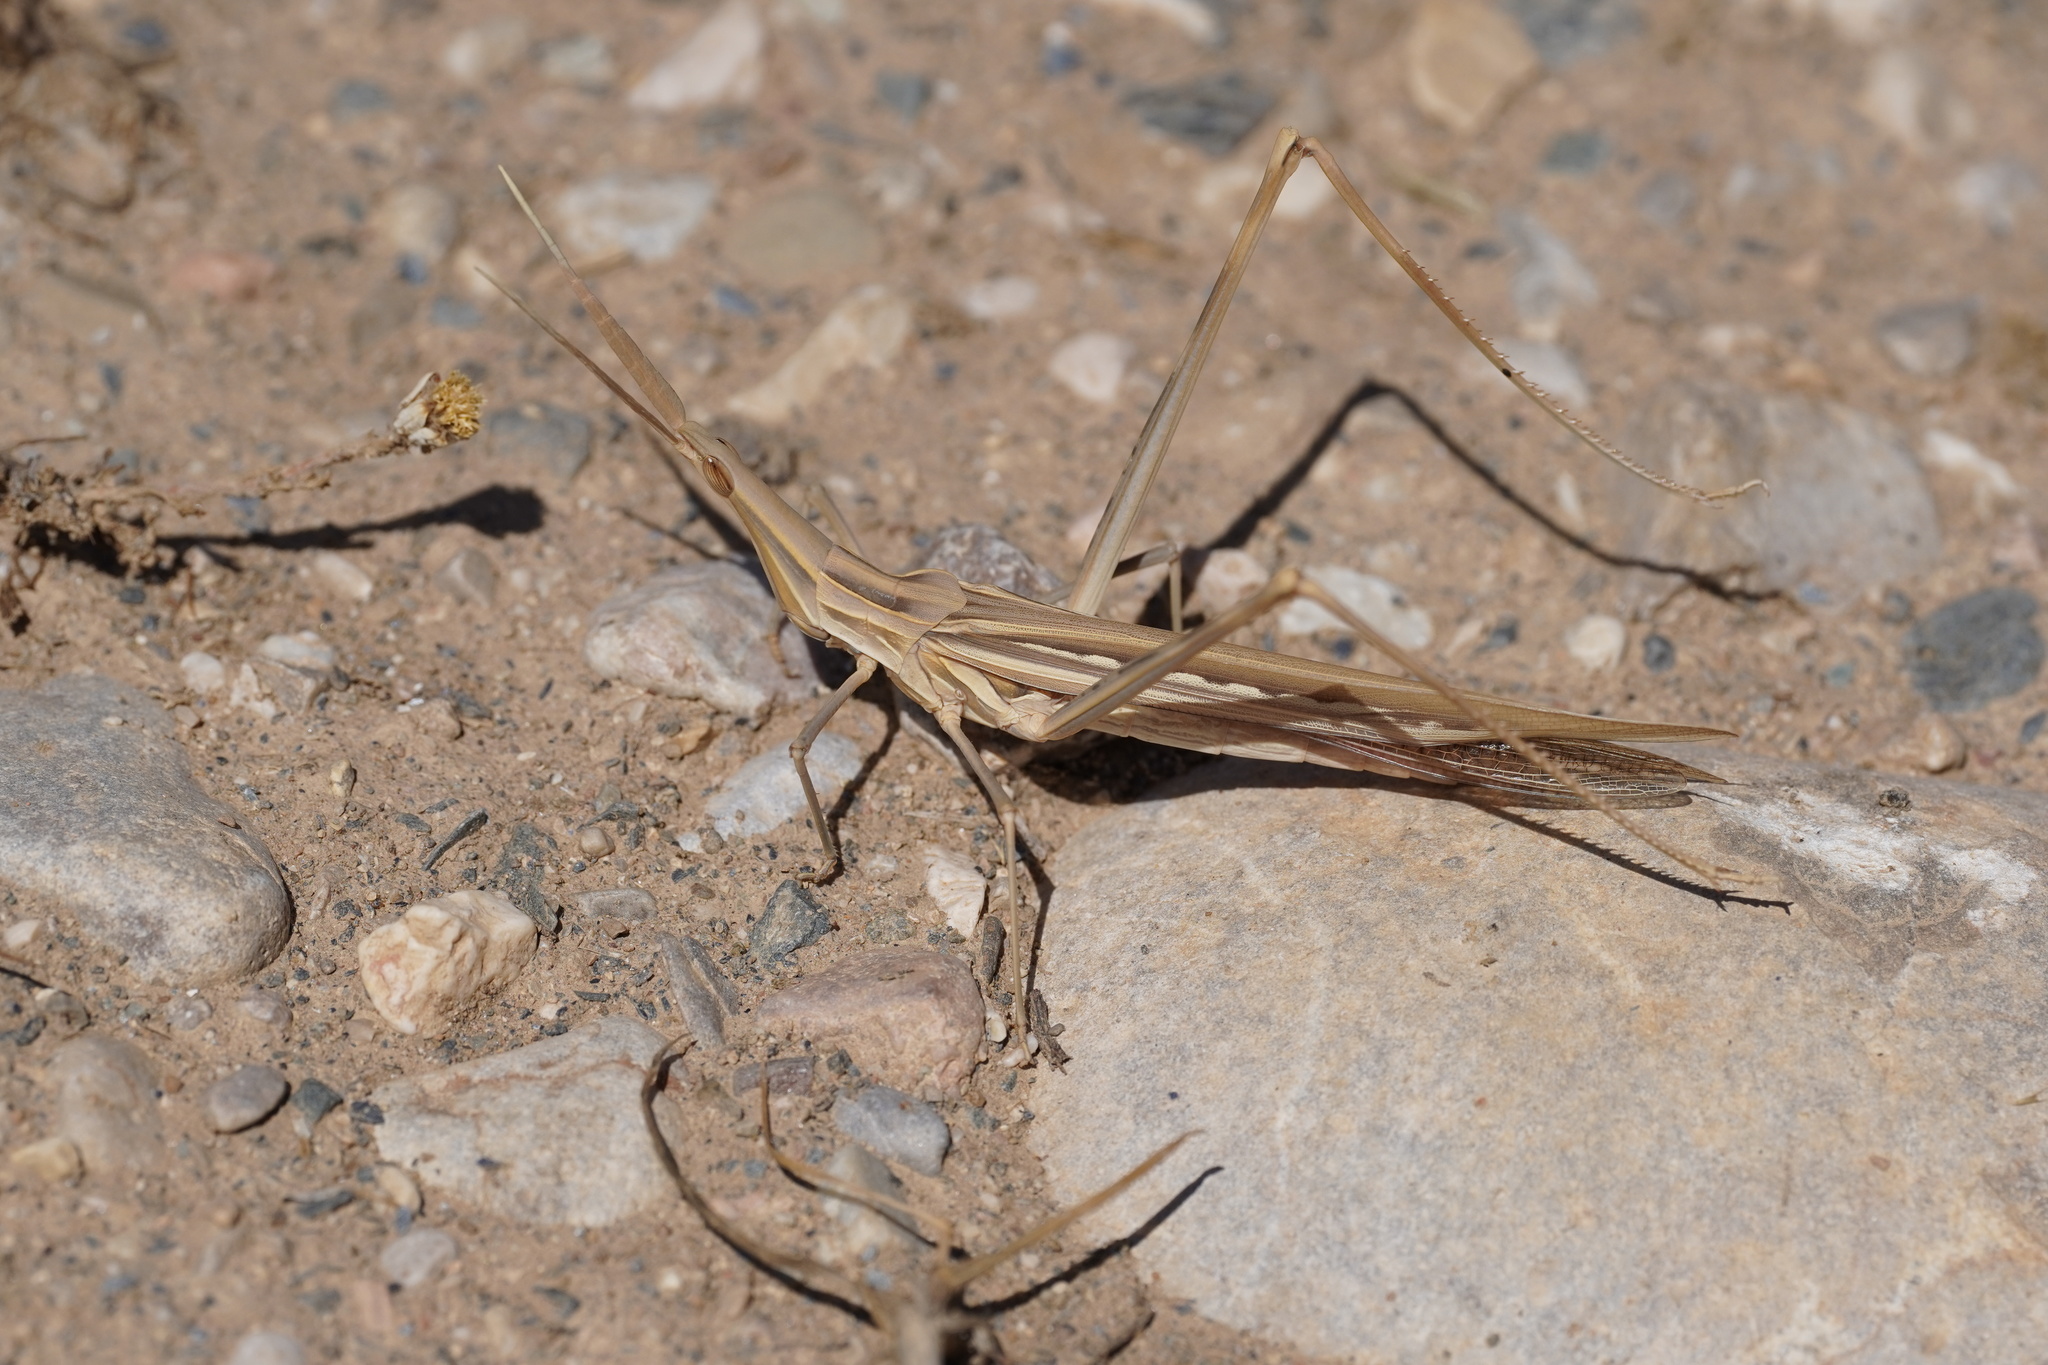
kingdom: Animalia
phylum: Arthropoda
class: Insecta
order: Orthoptera
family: Acrididae
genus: Truxalis
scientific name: Truxalis nasuta
